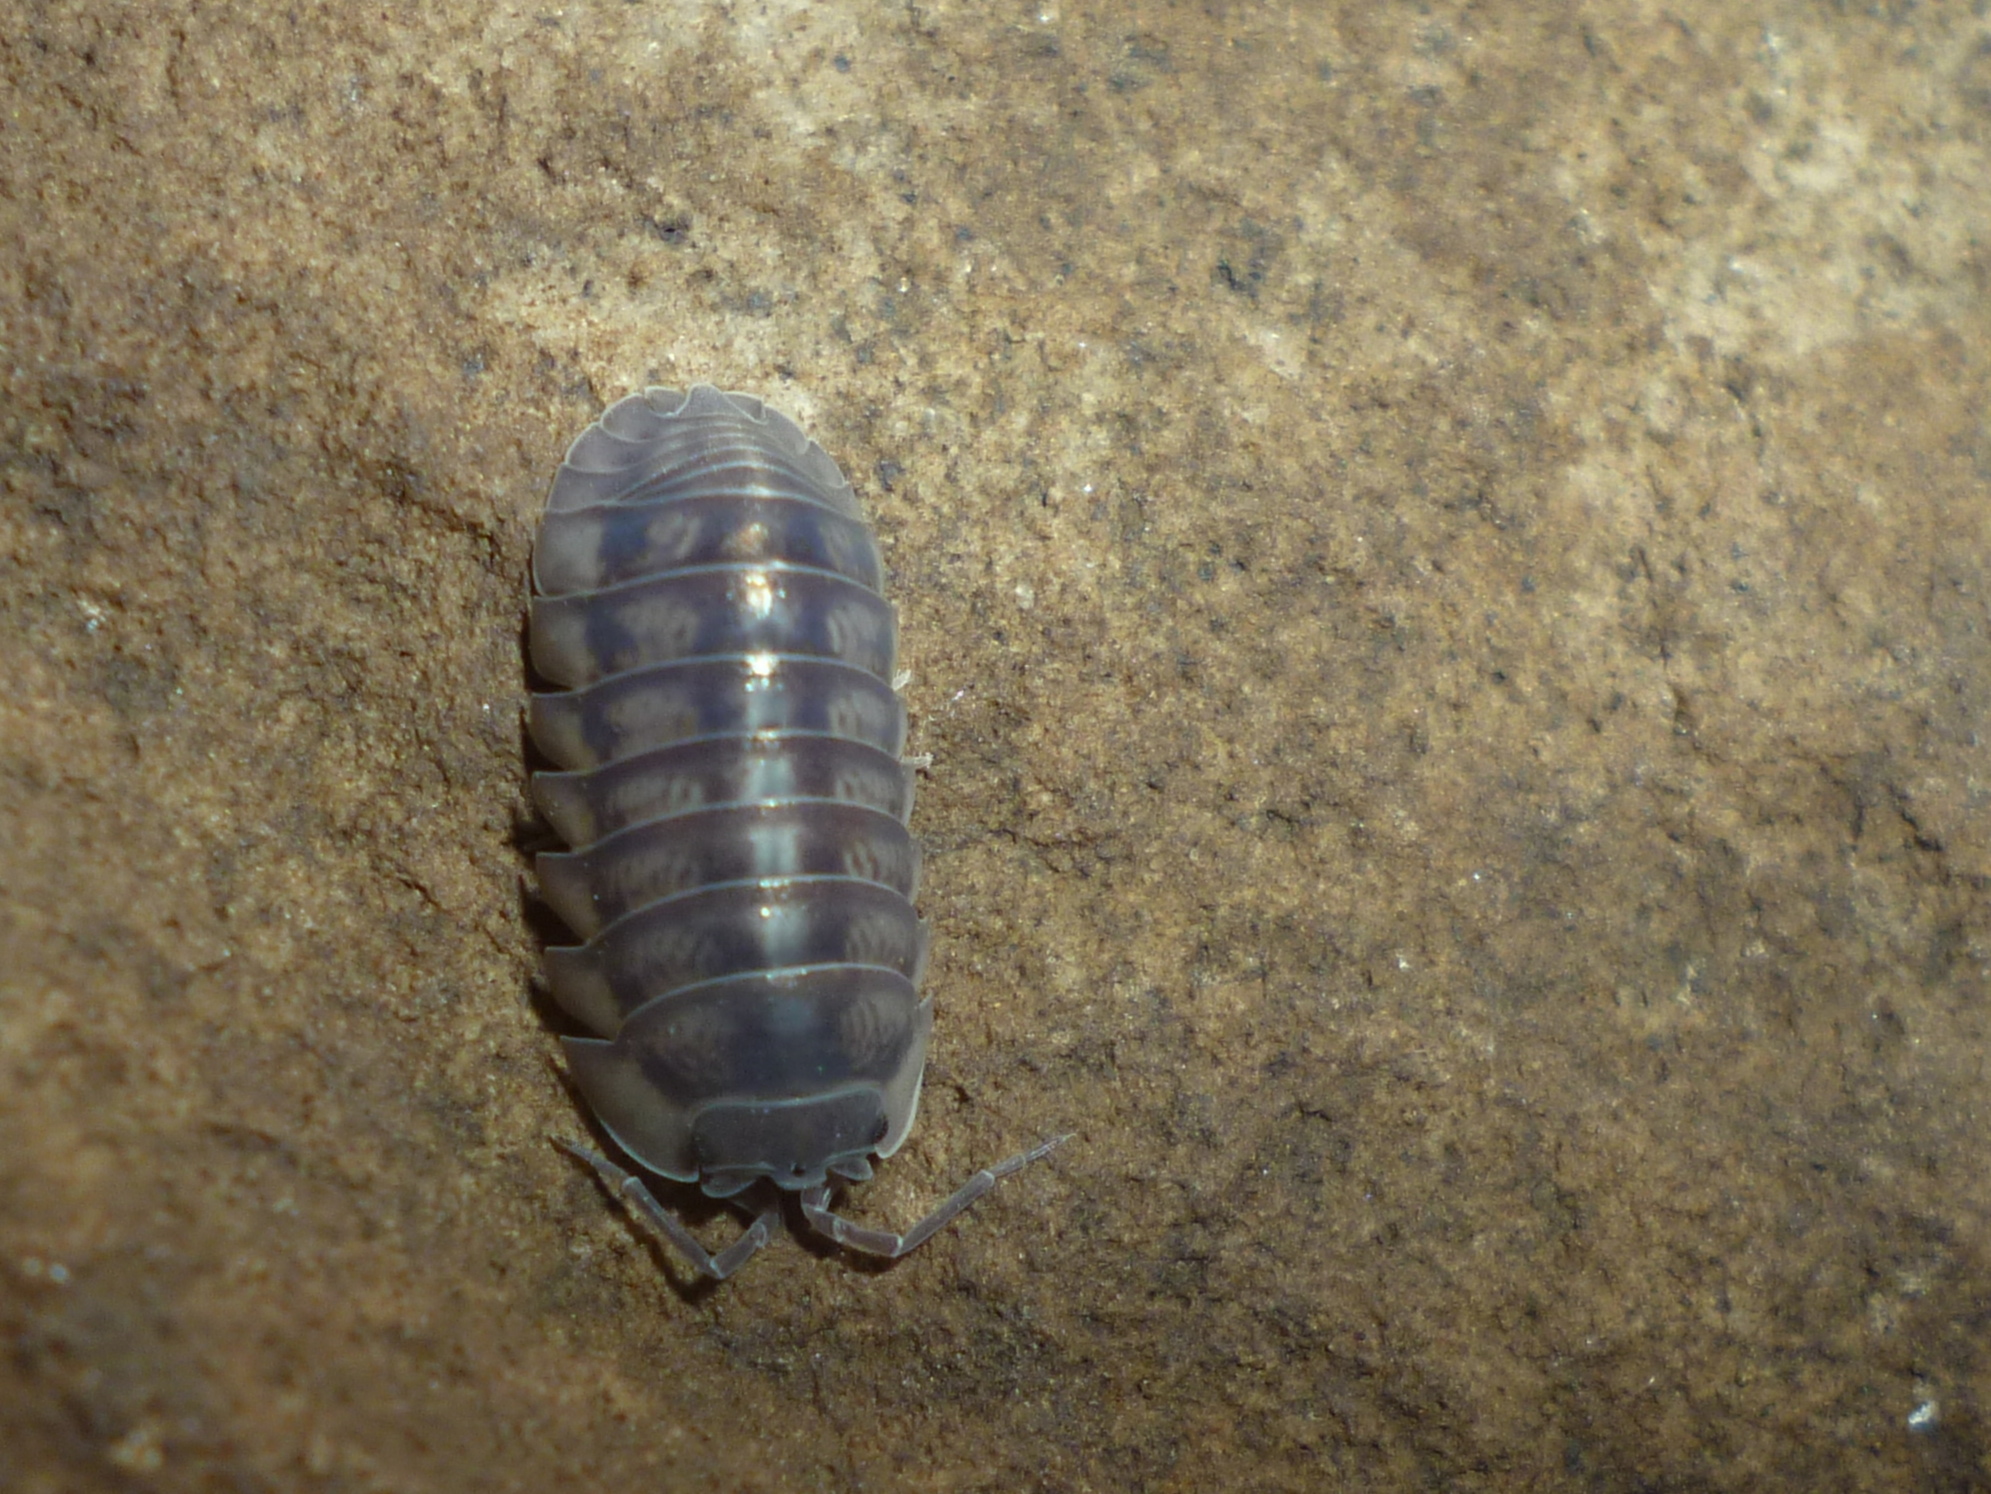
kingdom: Animalia
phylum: Arthropoda
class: Malacostraca
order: Isopoda
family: Armadillidiidae
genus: Armadillidium
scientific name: Armadillidium nasatum
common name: Isopod
